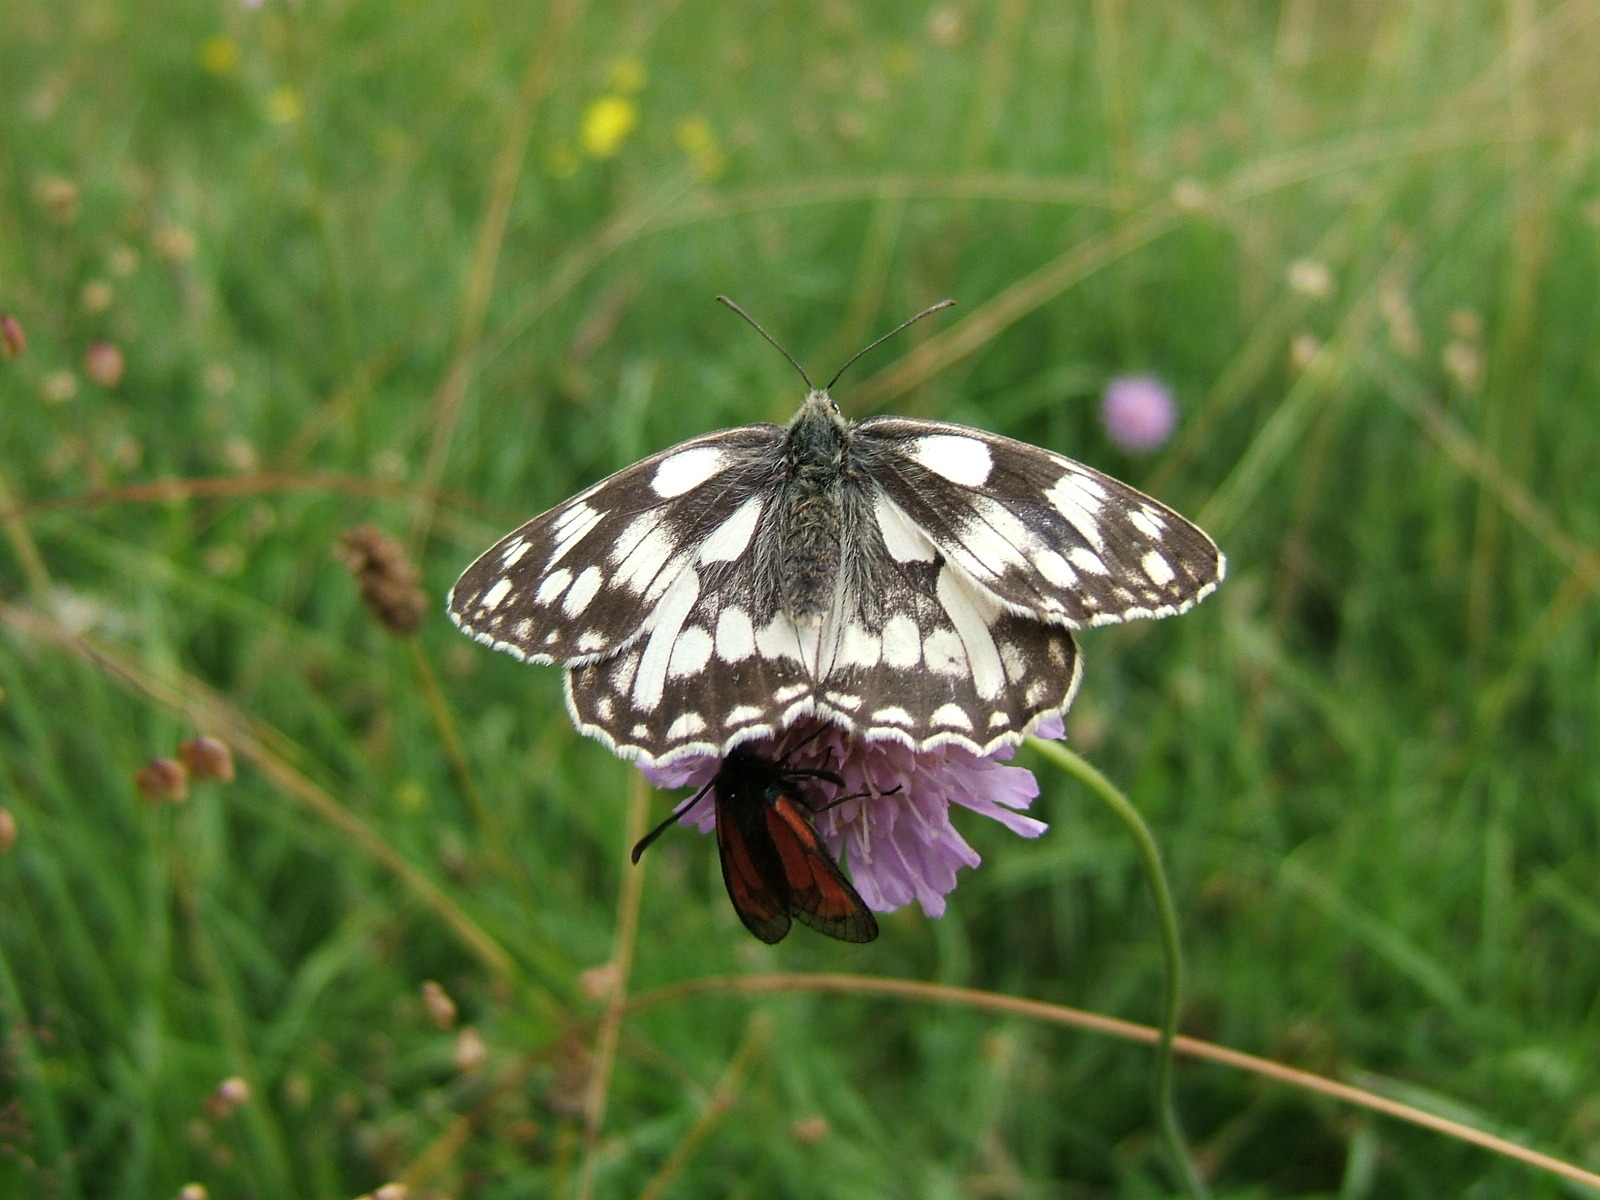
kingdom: Animalia
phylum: Arthropoda
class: Insecta
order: Lepidoptera
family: Nymphalidae
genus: Melanargia
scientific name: Melanargia galathea
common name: Marbled white
